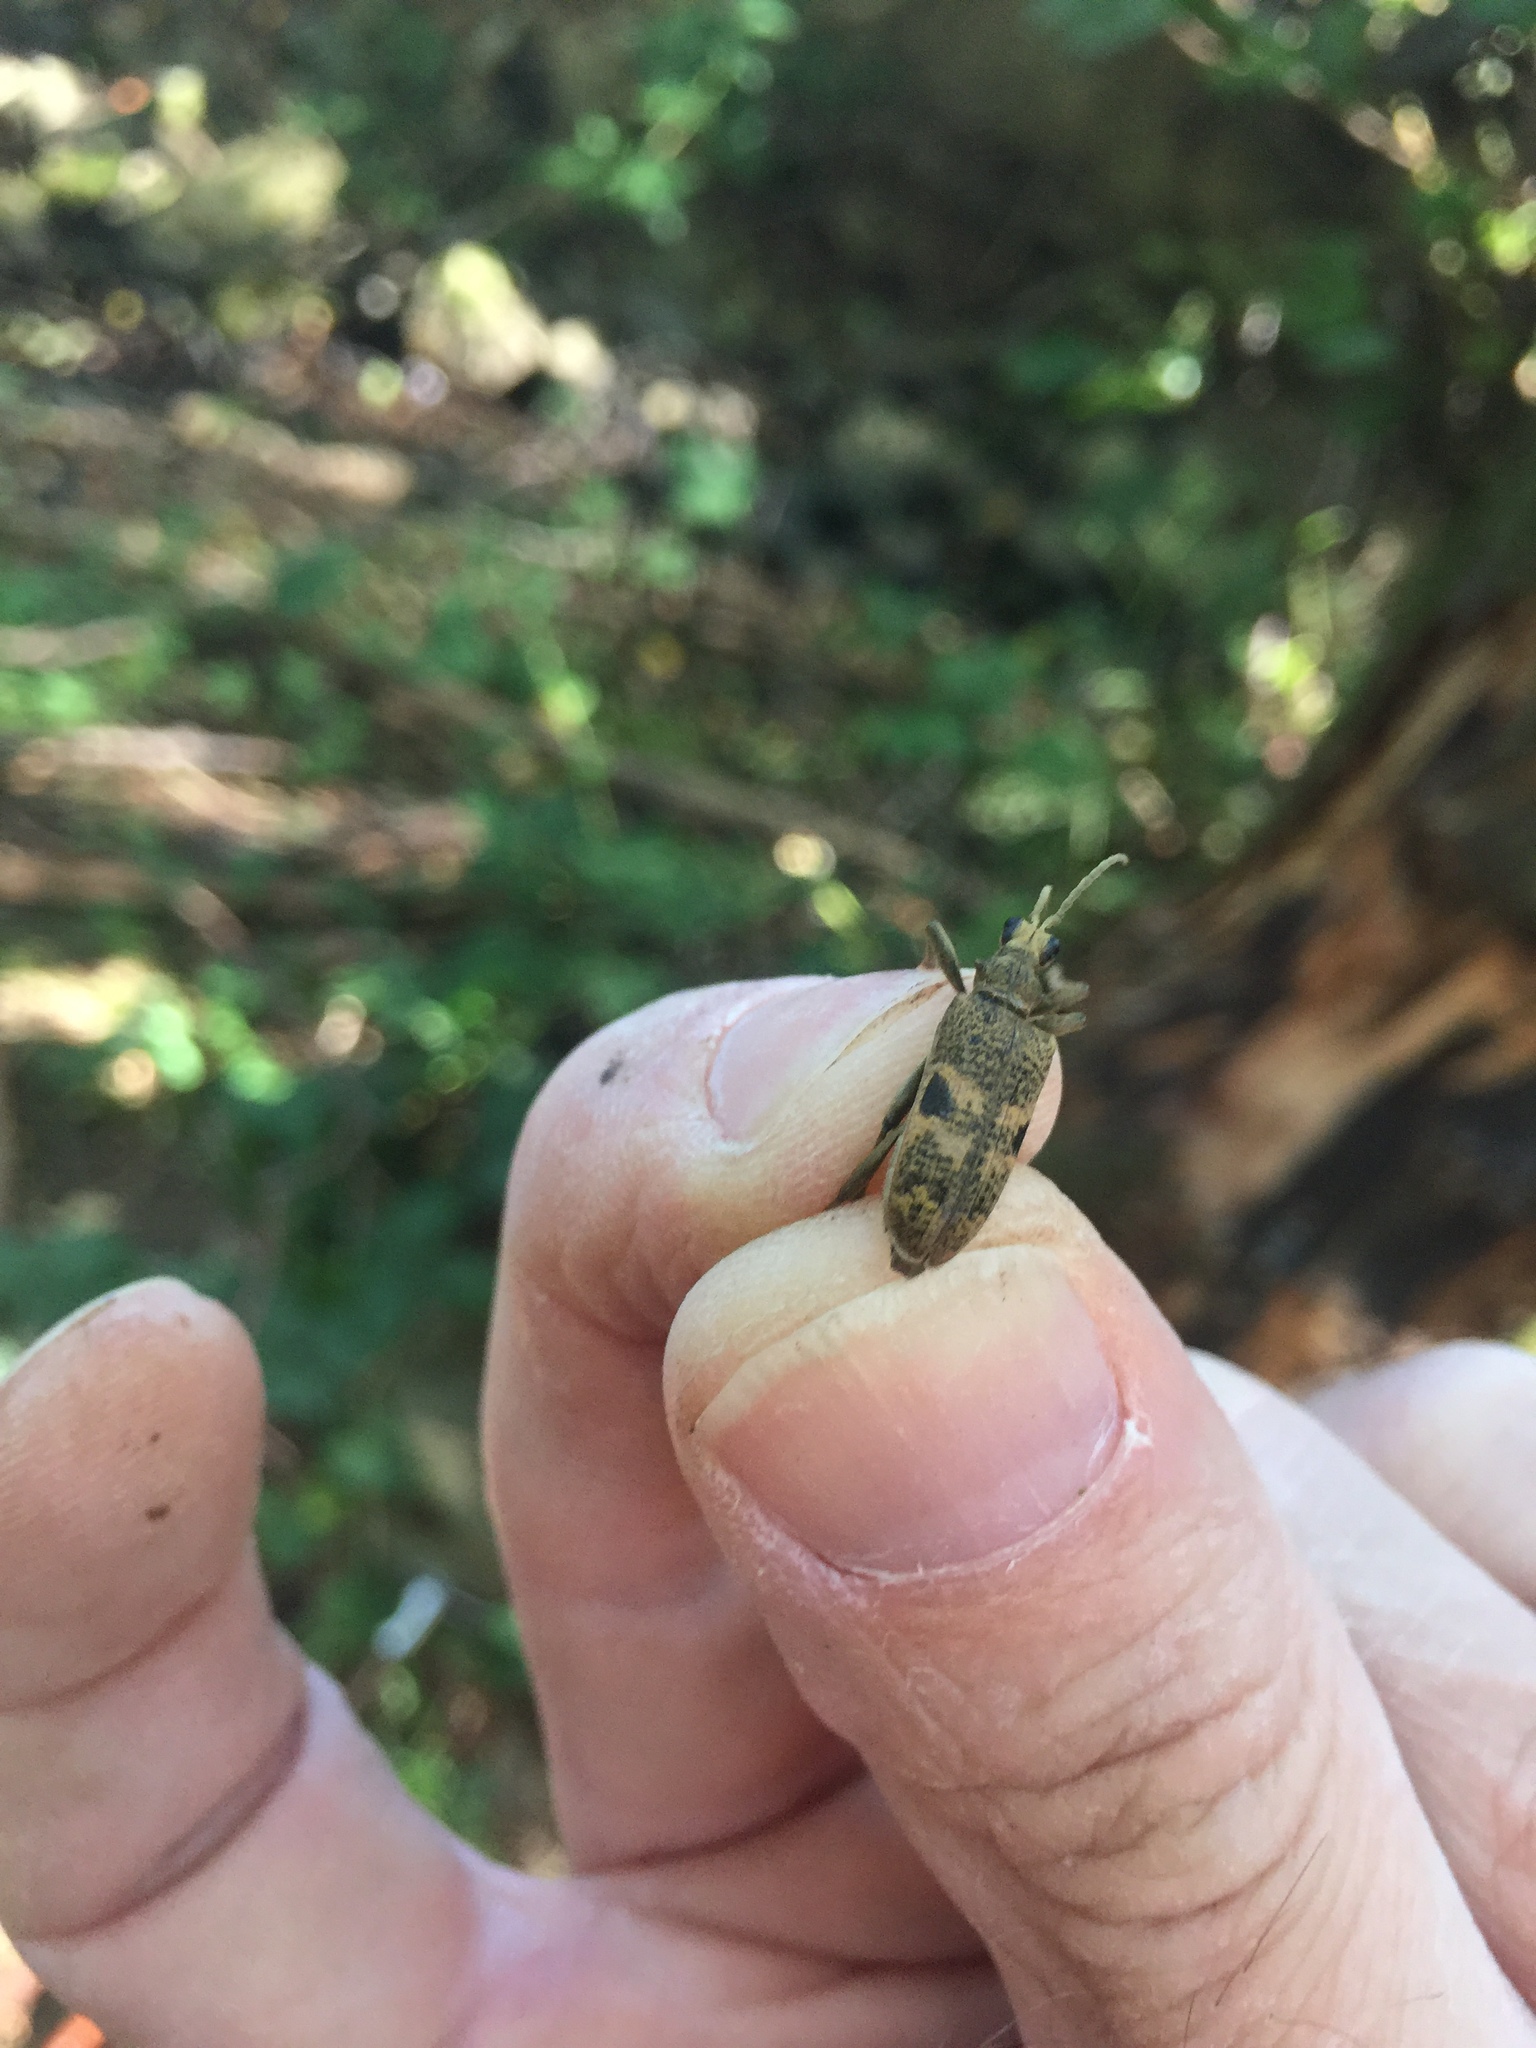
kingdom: Animalia
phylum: Arthropoda
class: Insecta
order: Coleoptera
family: Cerambycidae
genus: Rhagium
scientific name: Rhagium mordax
